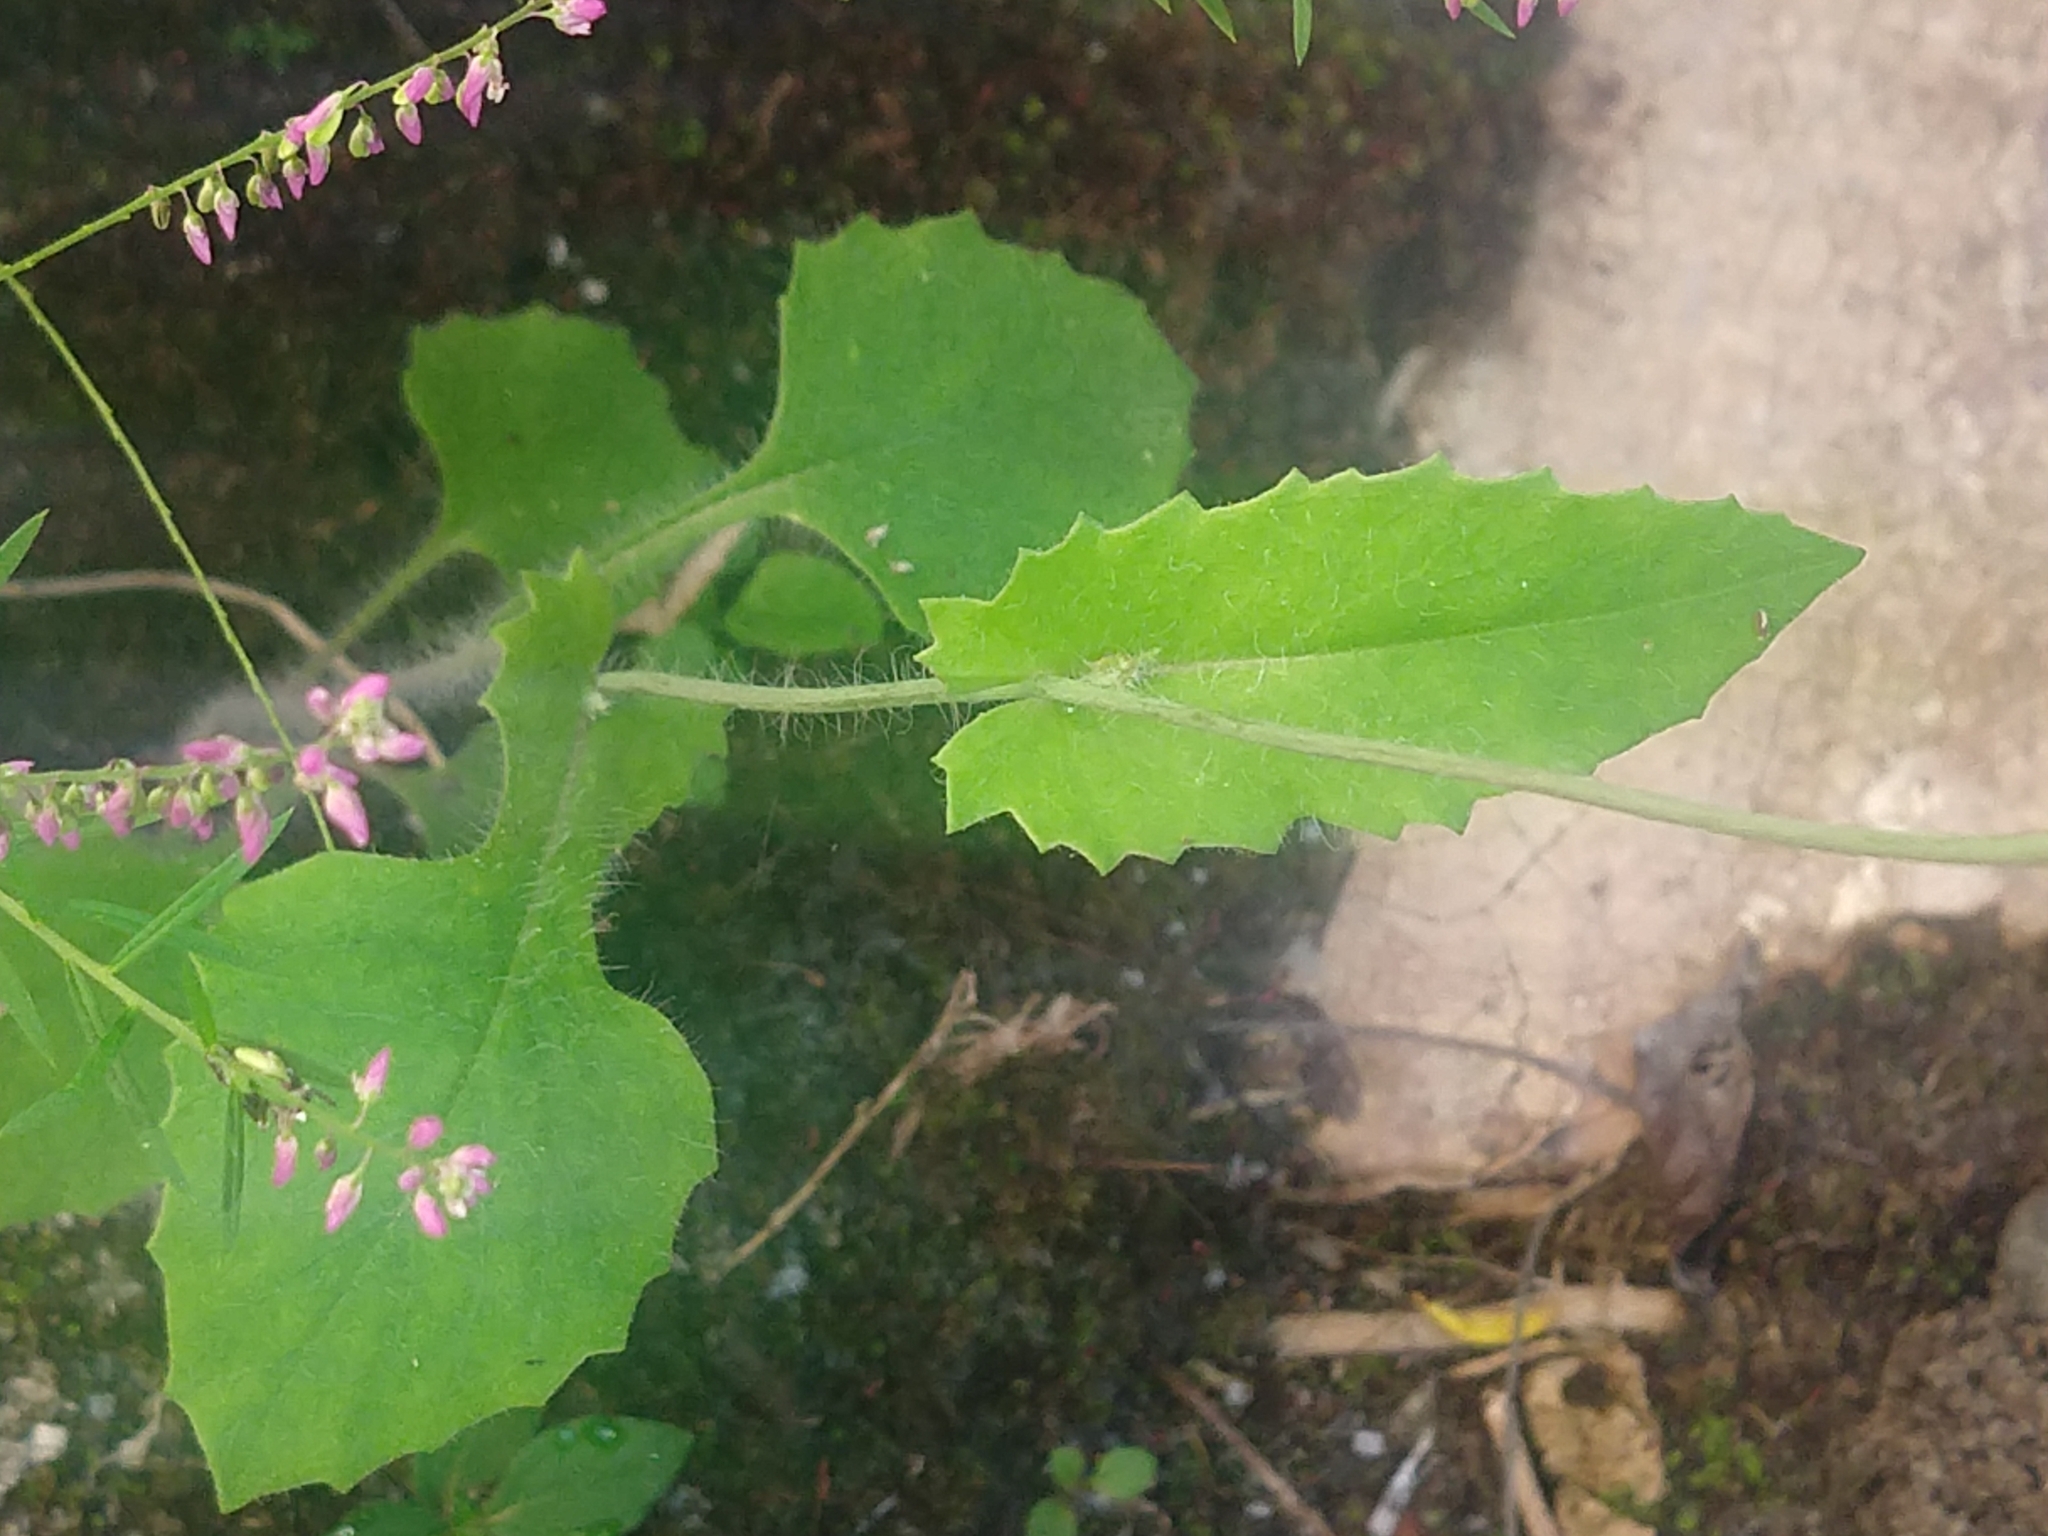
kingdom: Plantae
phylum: Tracheophyta
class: Magnoliopsida
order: Asterales
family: Asteraceae
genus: Emilia
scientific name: Emilia fosbergii
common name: Florida tasselflower
